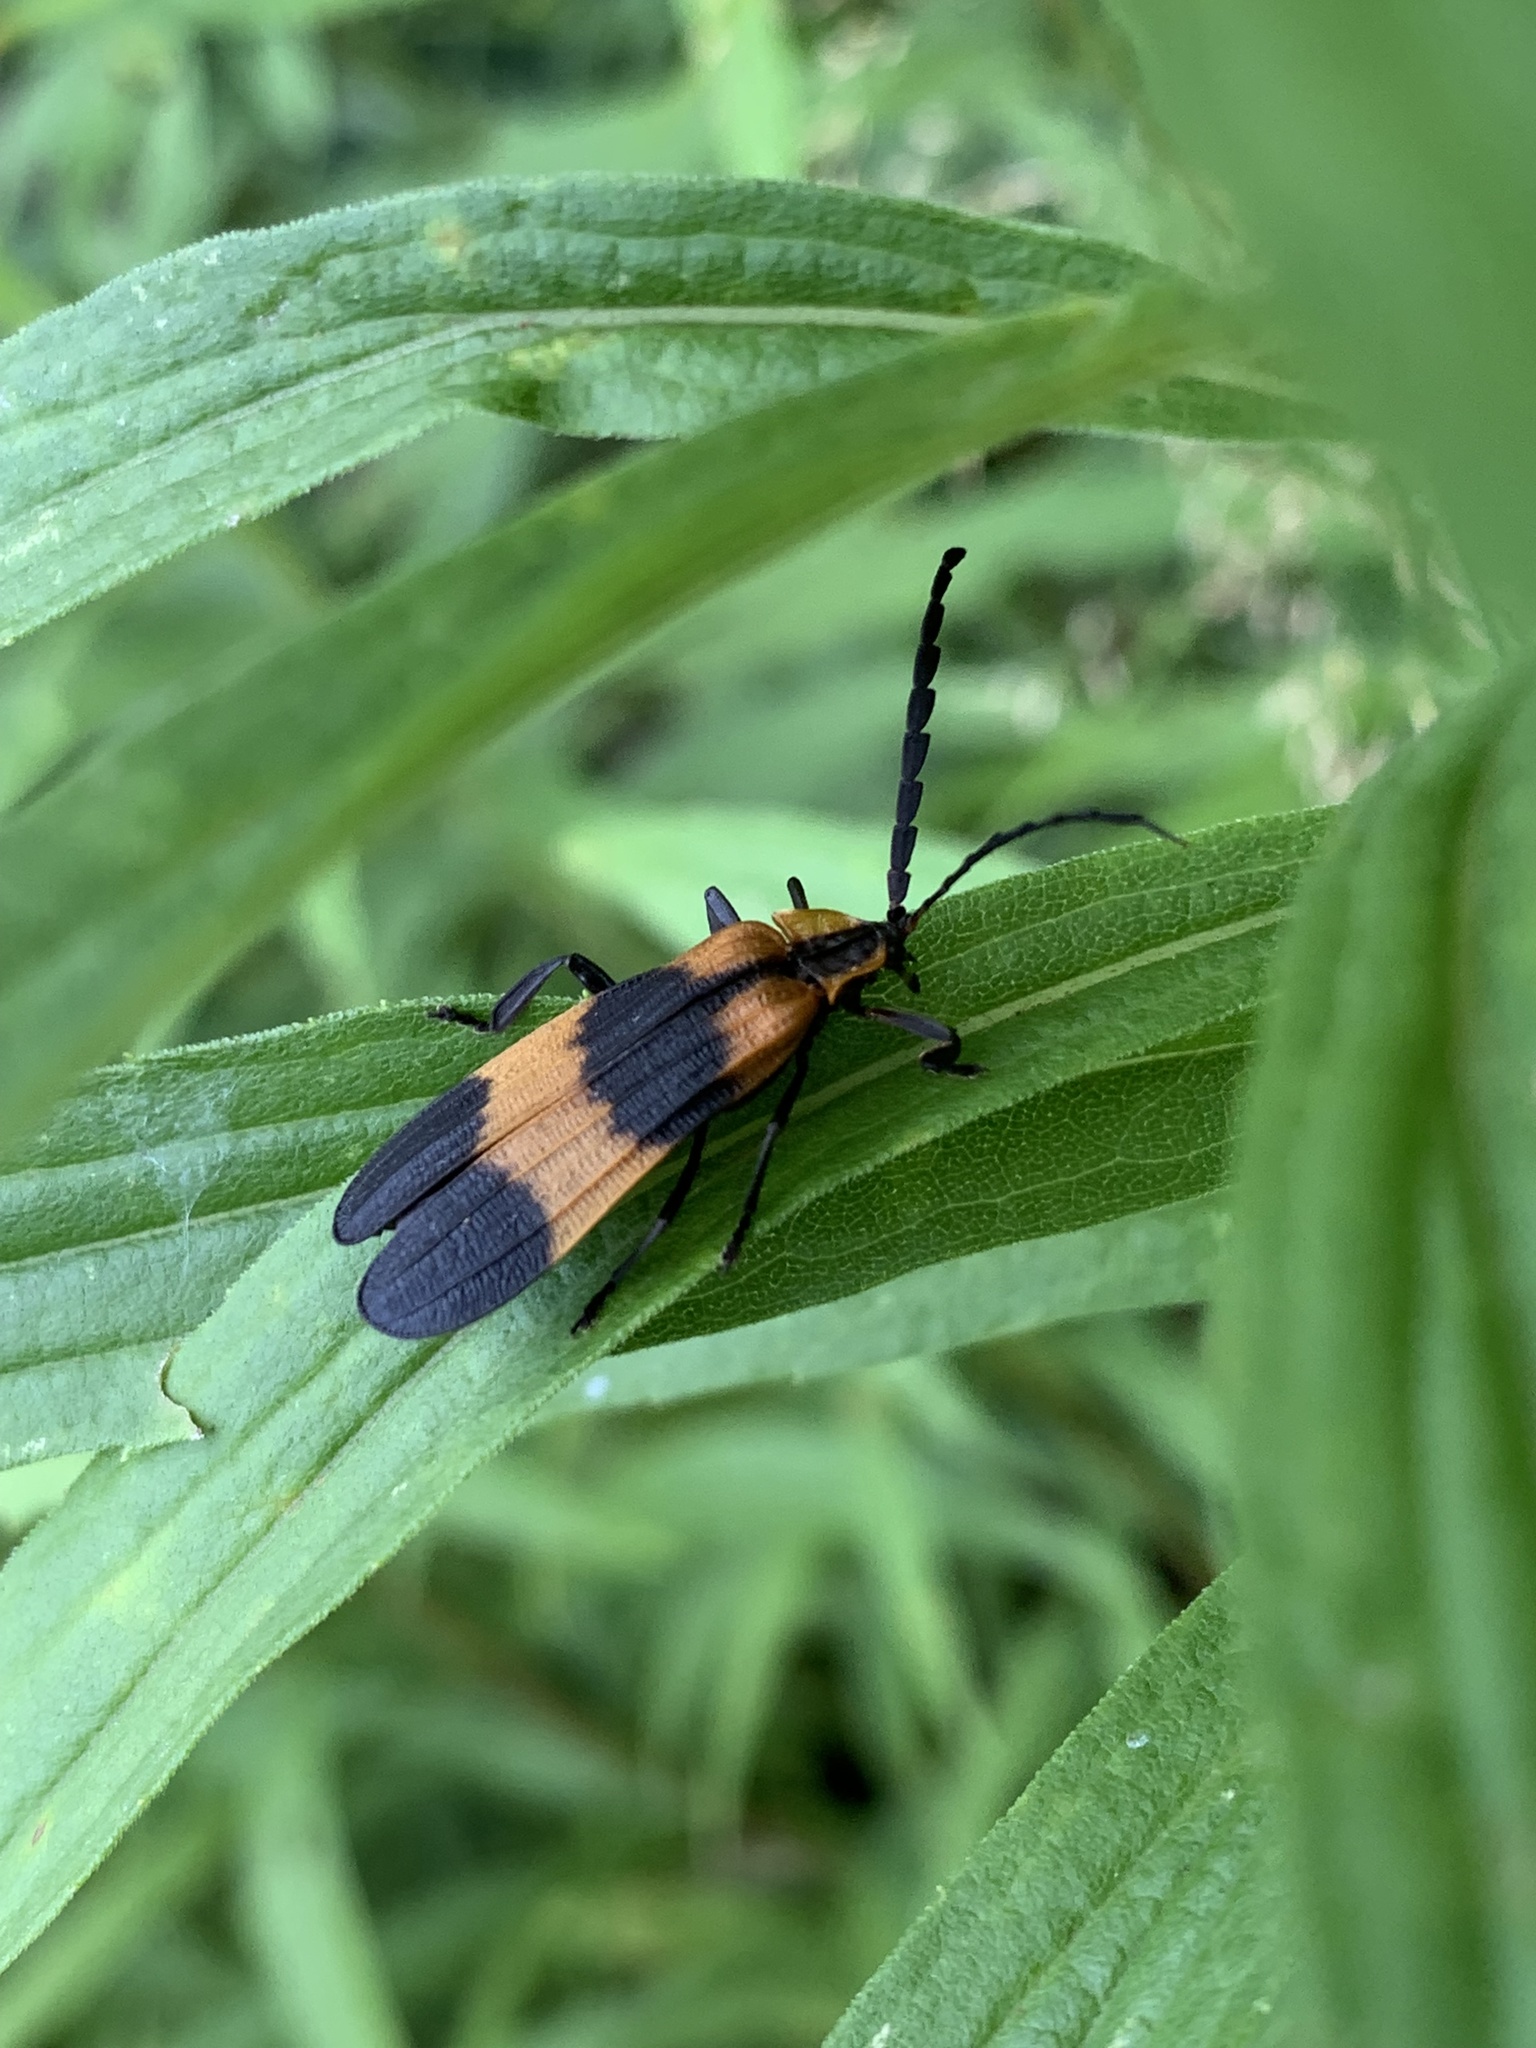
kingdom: Animalia
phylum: Arthropoda
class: Insecta
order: Coleoptera
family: Lycidae
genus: Calopteron
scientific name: Calopteron reticulatum
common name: Banded net-winged beetle
